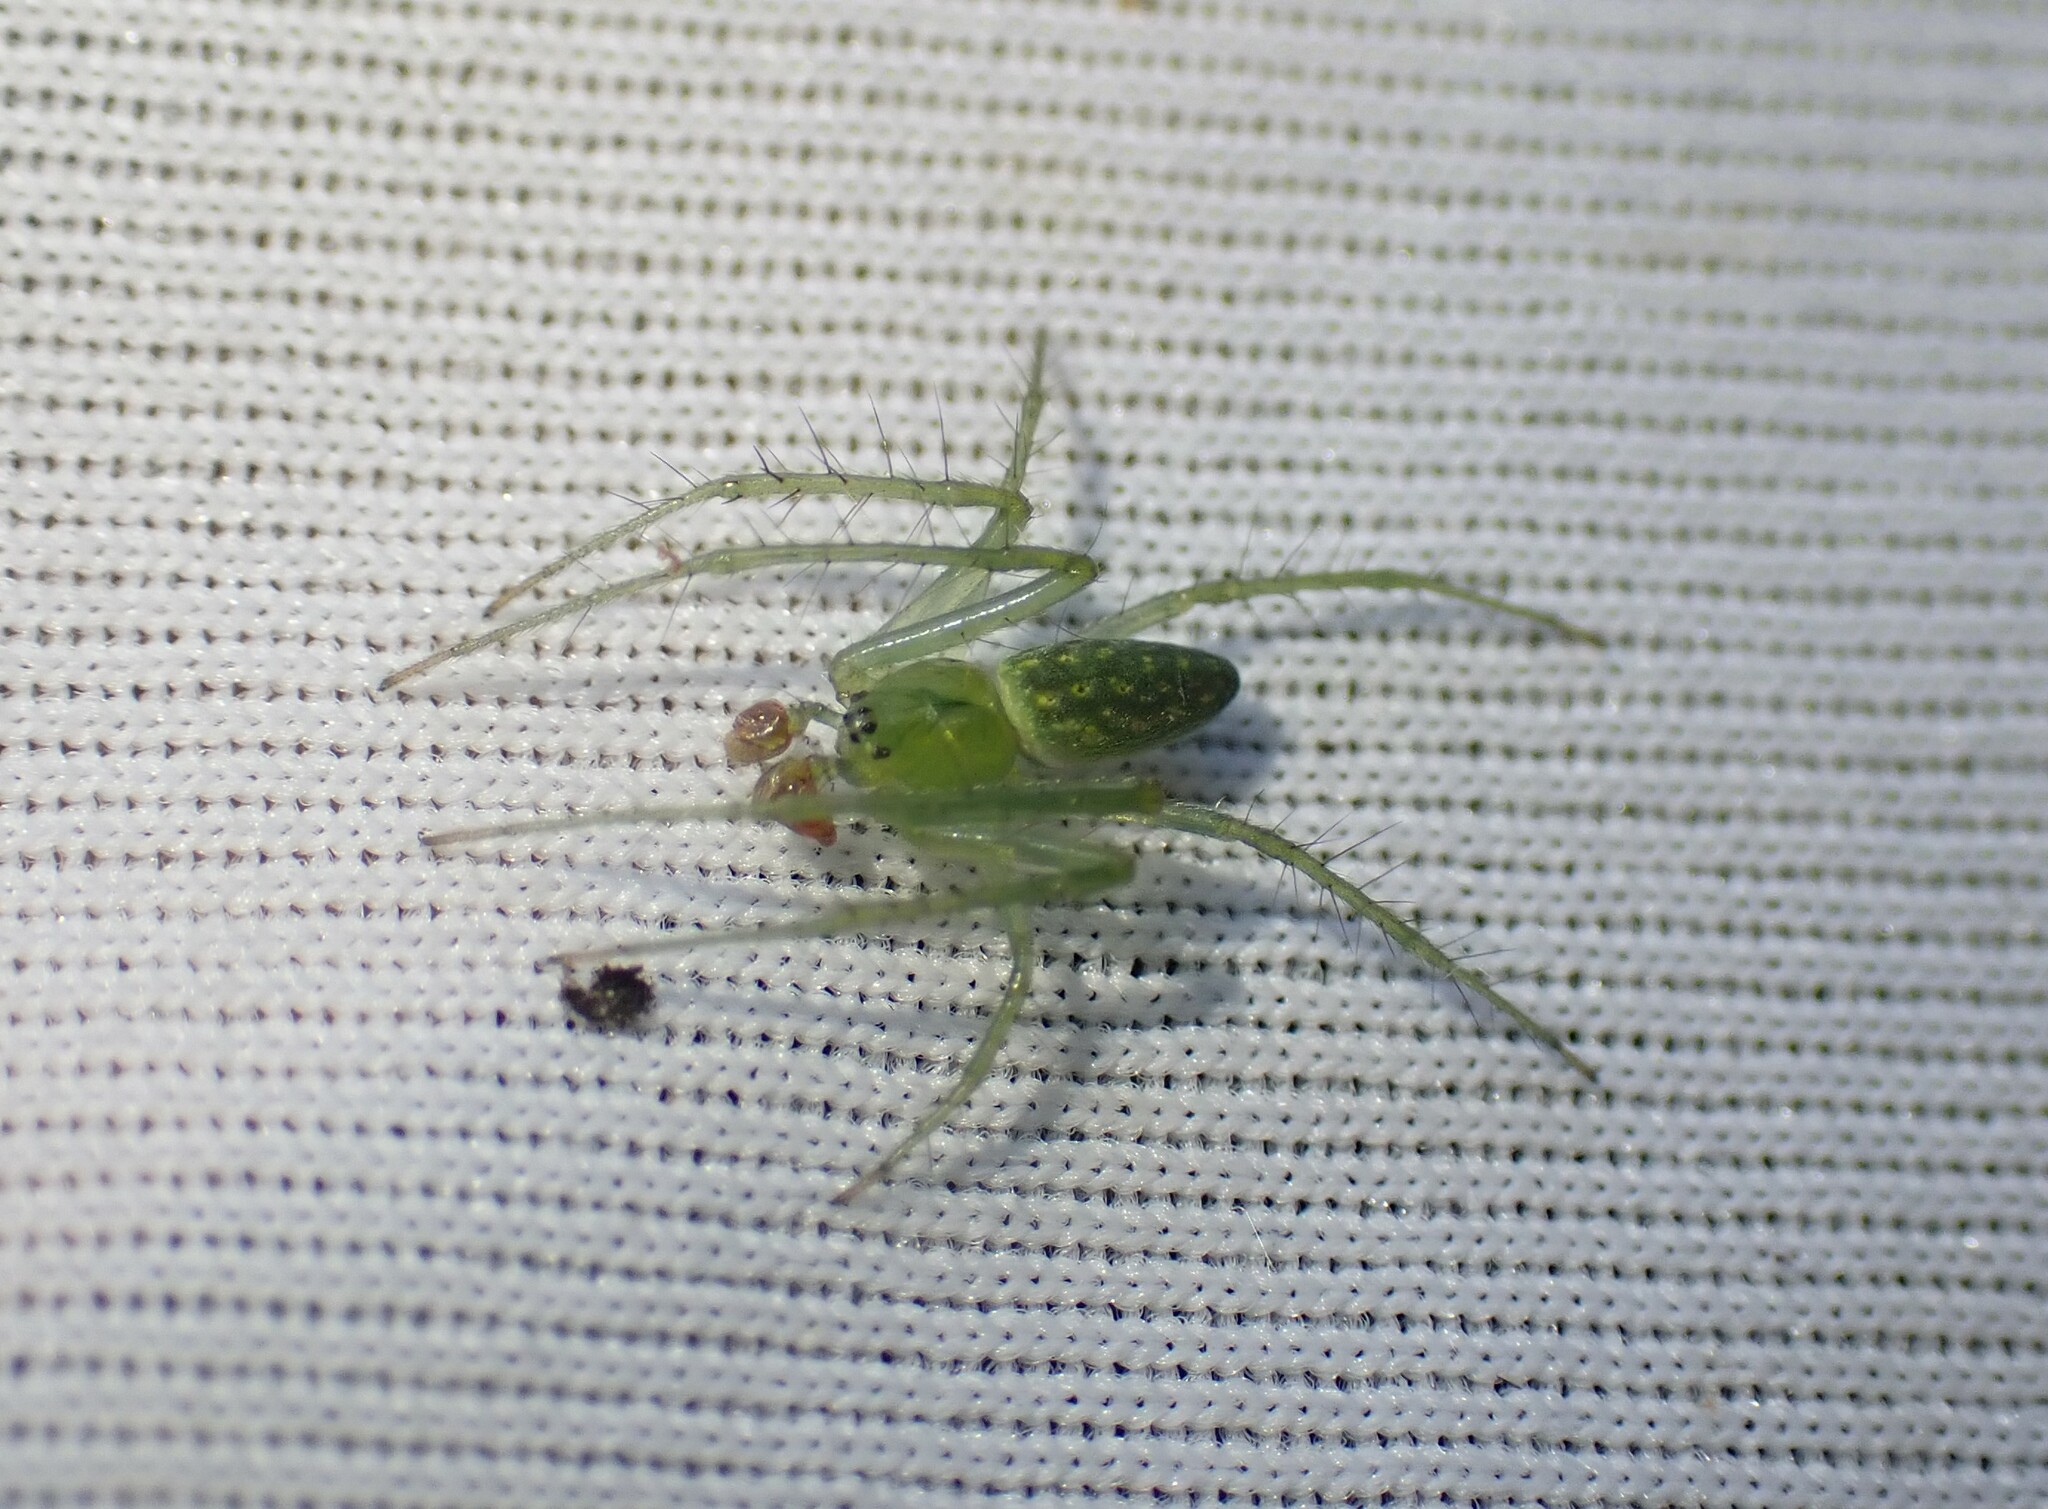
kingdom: Animalia
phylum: Arthropoda
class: Arachnida
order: Araneae
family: Araneidae
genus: Araneus
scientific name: Araneus talipedatus
